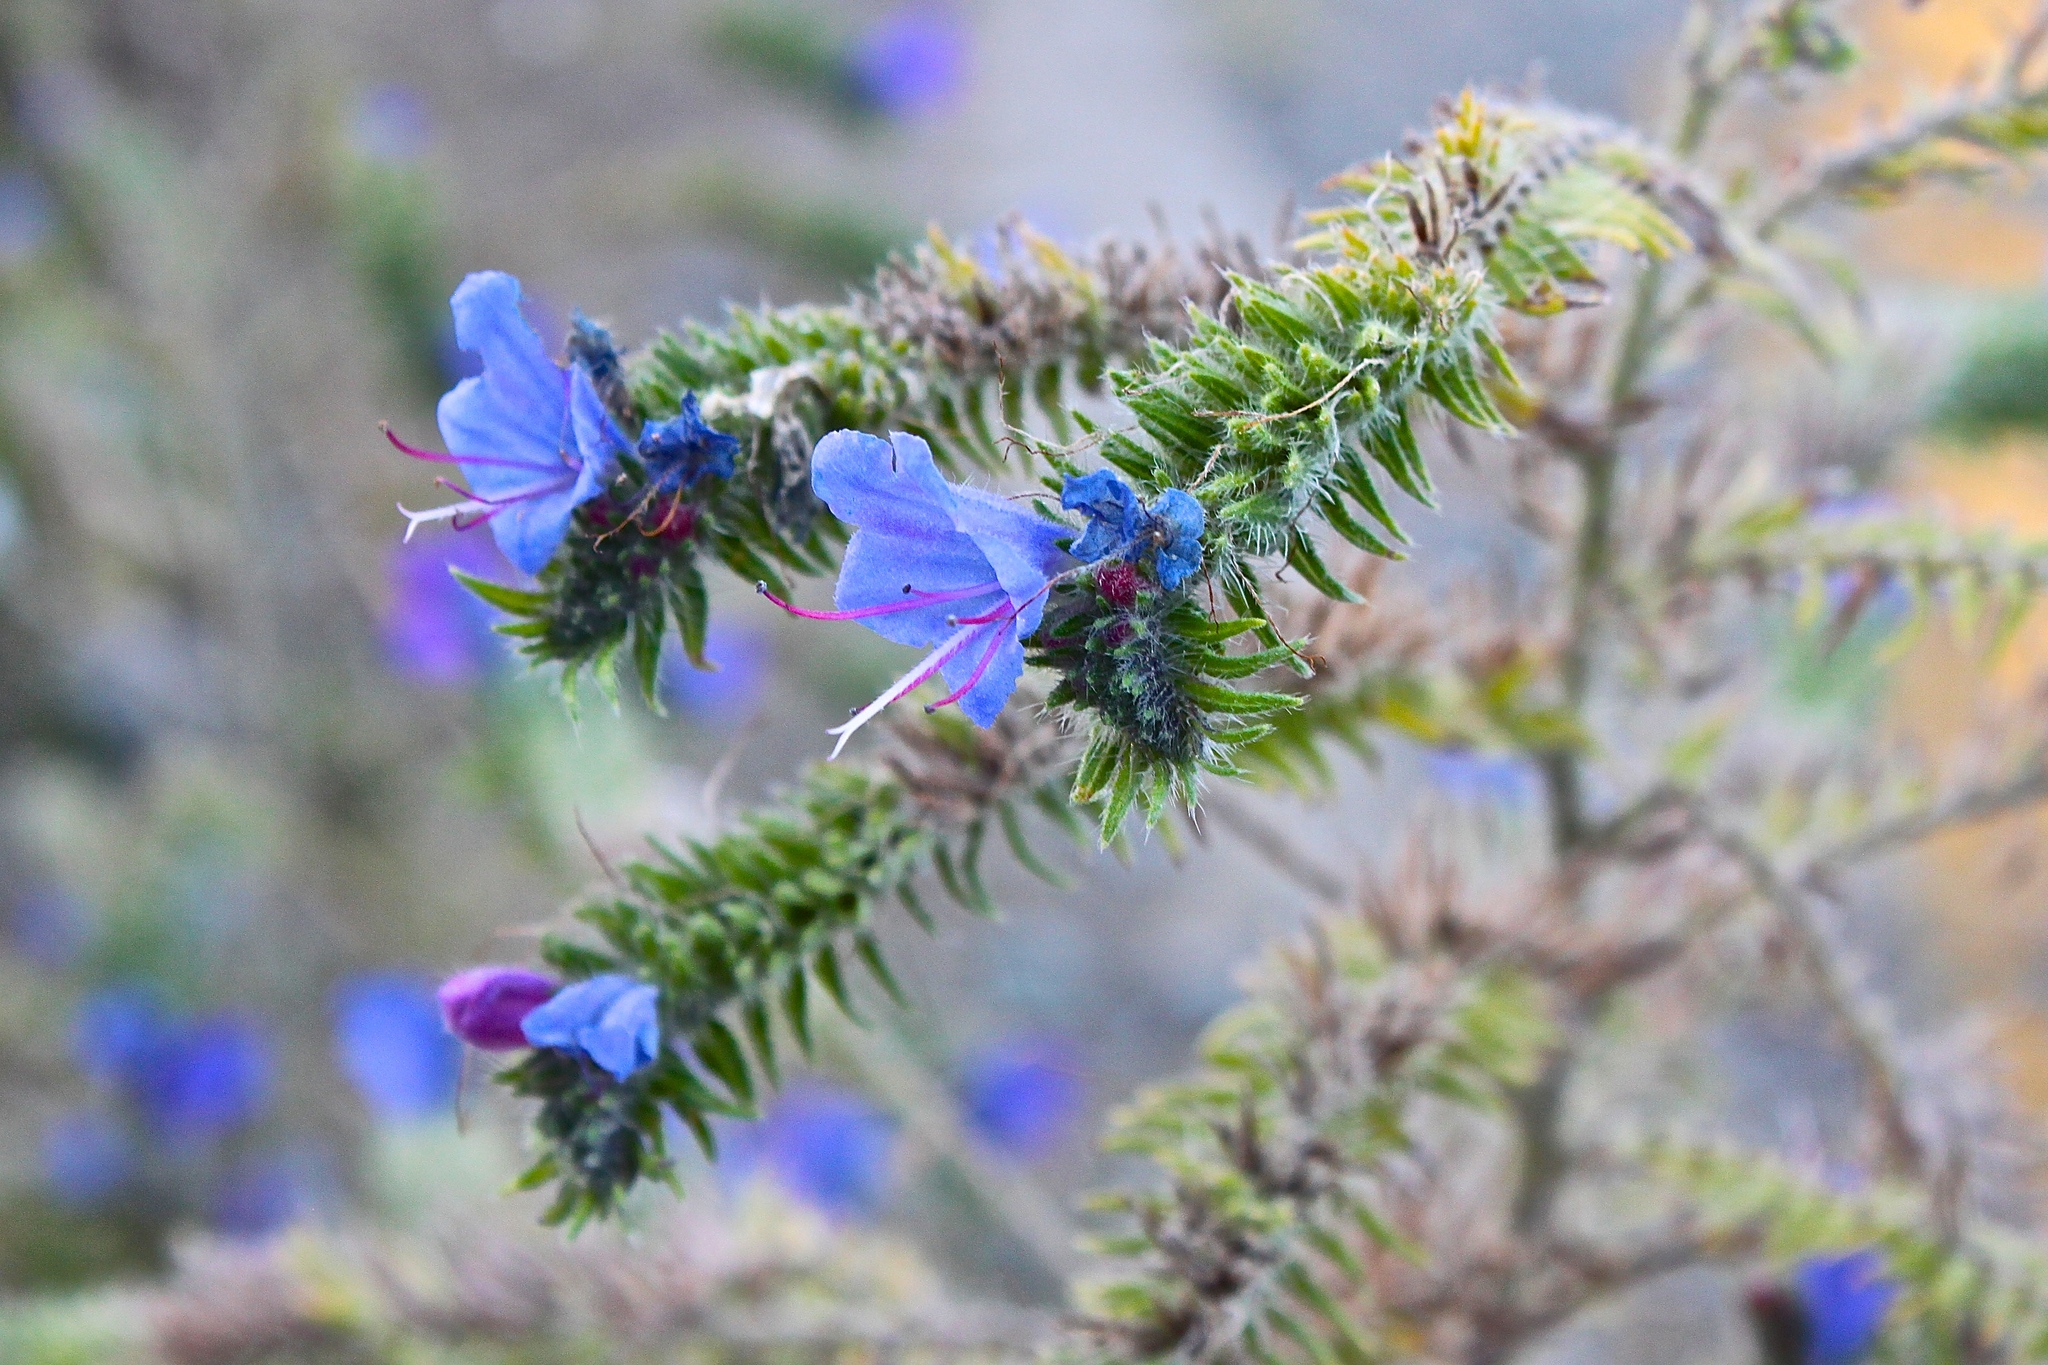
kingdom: Plantae
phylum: Tracheophyta
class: Magnoliopsida
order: Boraginales
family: Boraginaceae
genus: Echium
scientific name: Echium vulgare
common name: Common viper's bugloss
